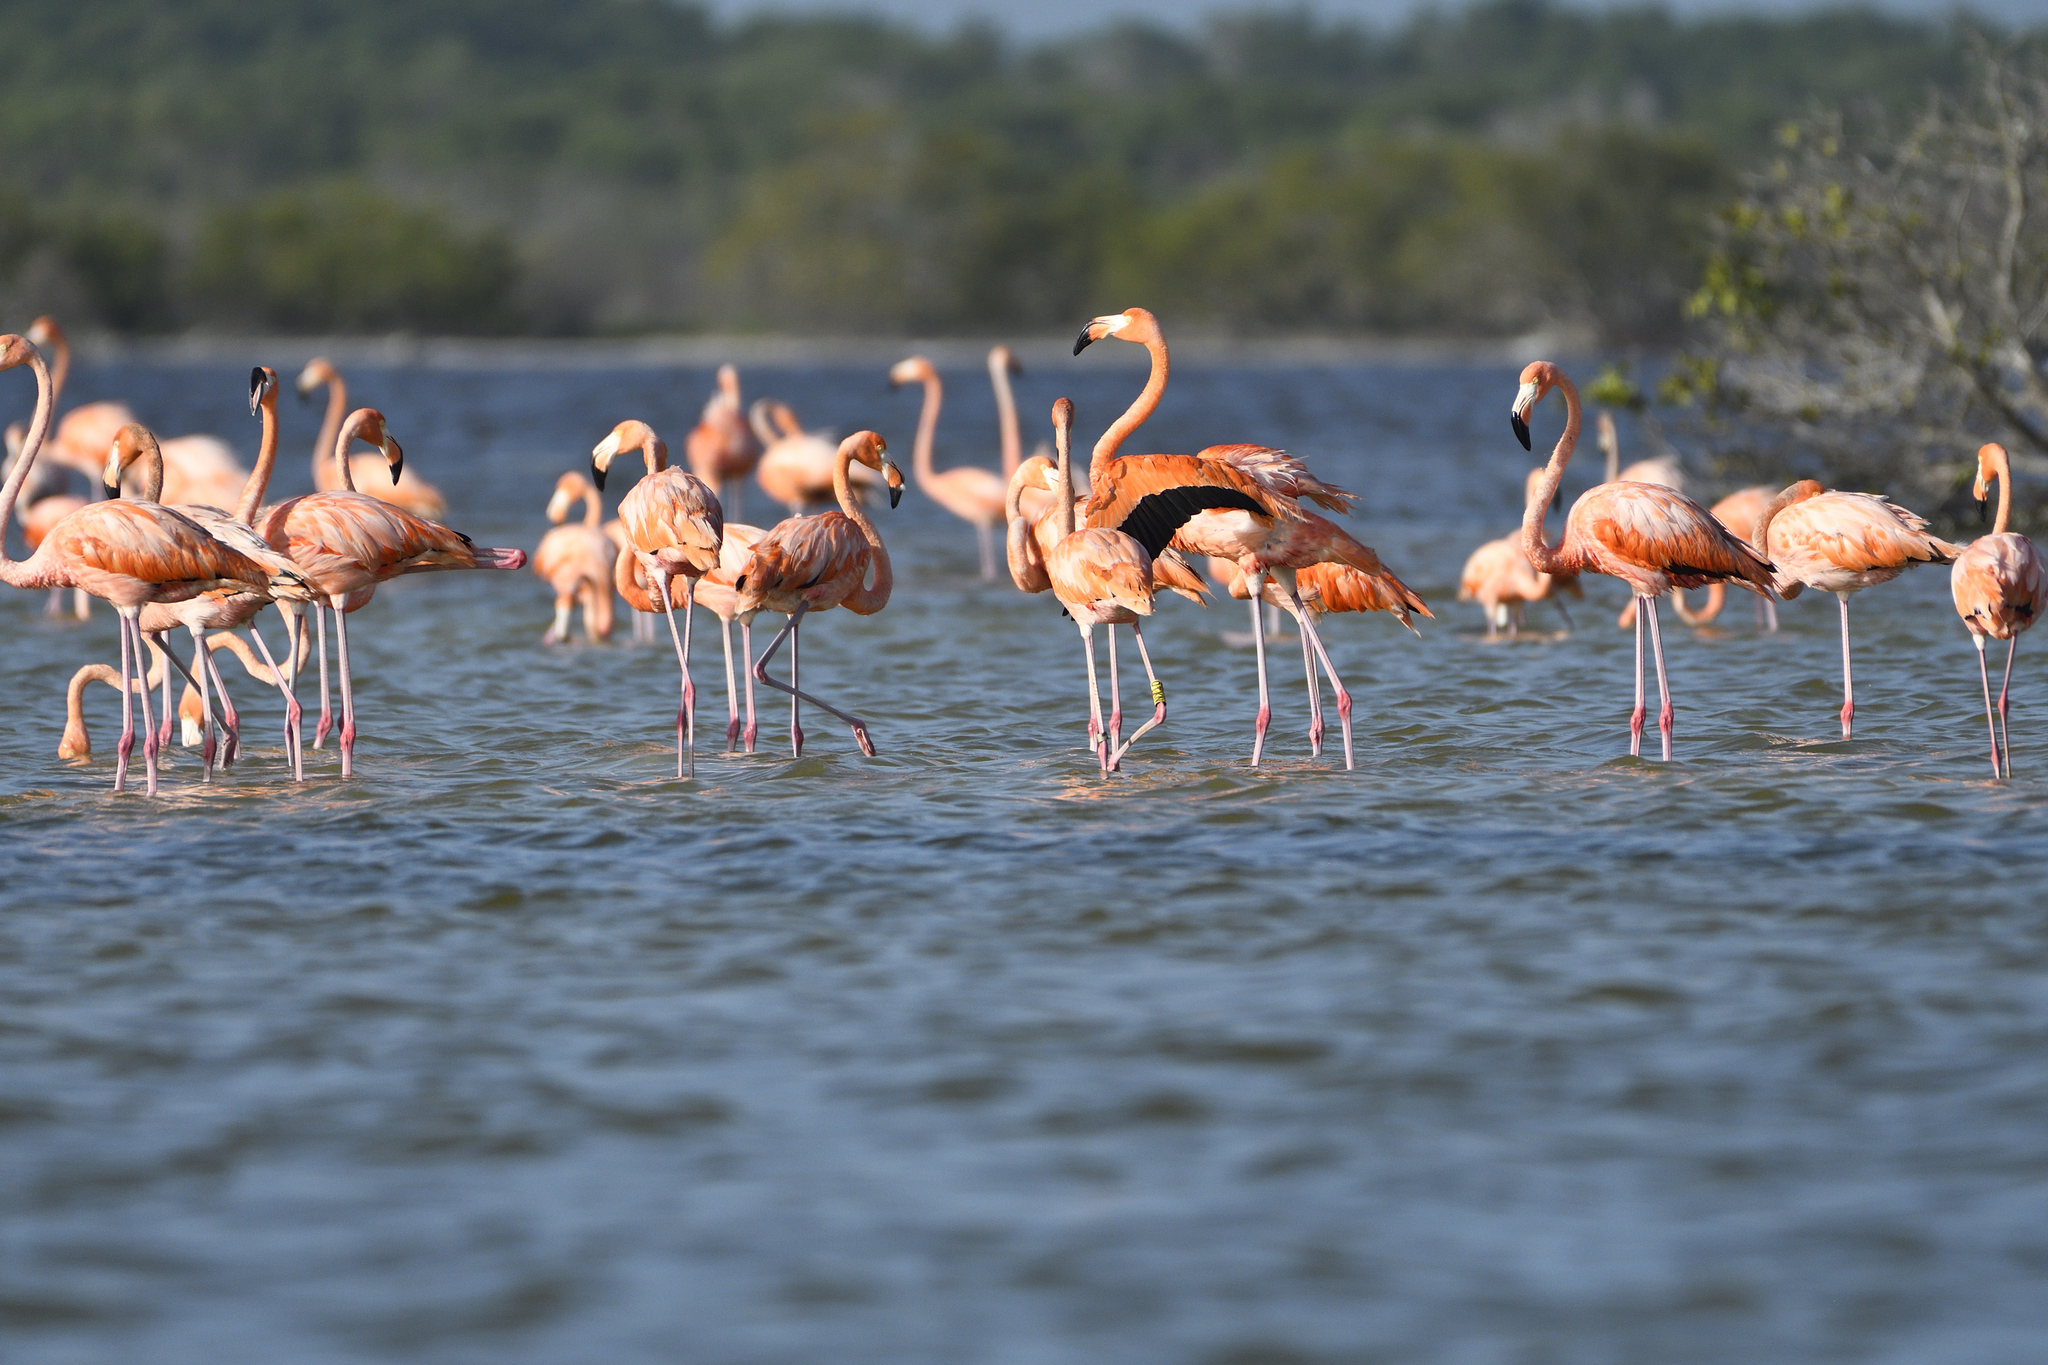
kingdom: Animalia
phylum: Chordata
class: Aves
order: Phoenicopteriformes
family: Phoenicopteridae
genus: Phoenicopterus
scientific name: Phoenicopterus ruber
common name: American flamingo
